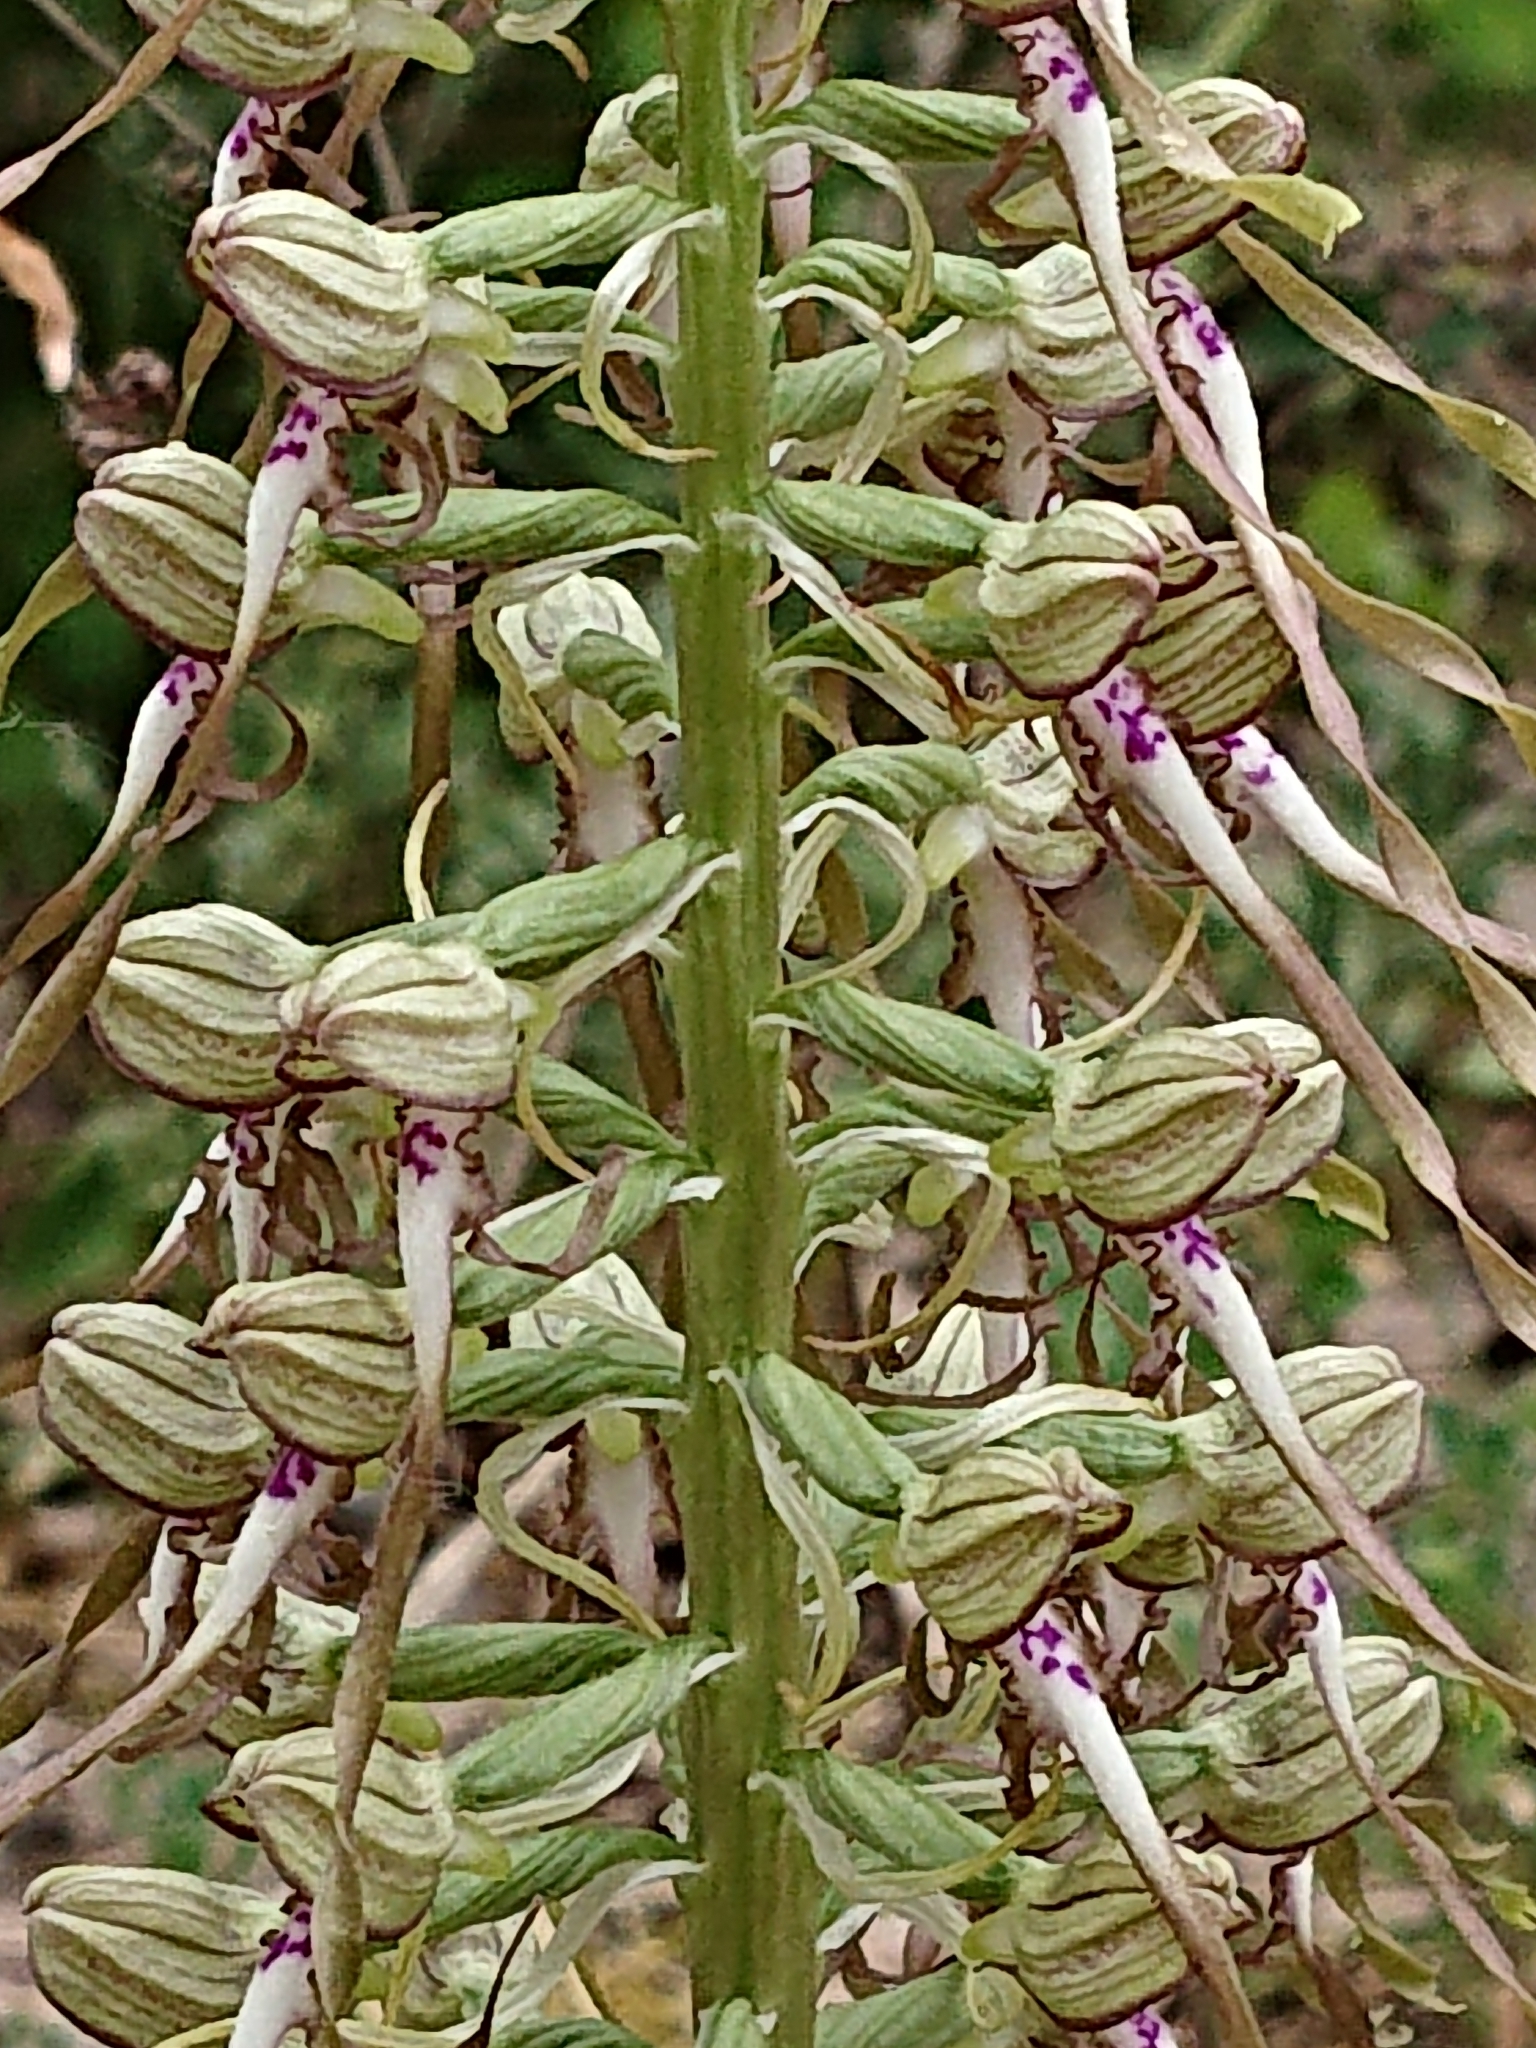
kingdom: Plantae
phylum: Tracheophyta
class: Liliopsida
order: Asparagales
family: Orchidaceae
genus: Himantoglossum
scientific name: Himantoglossum hircinum
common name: Lizard orchid
